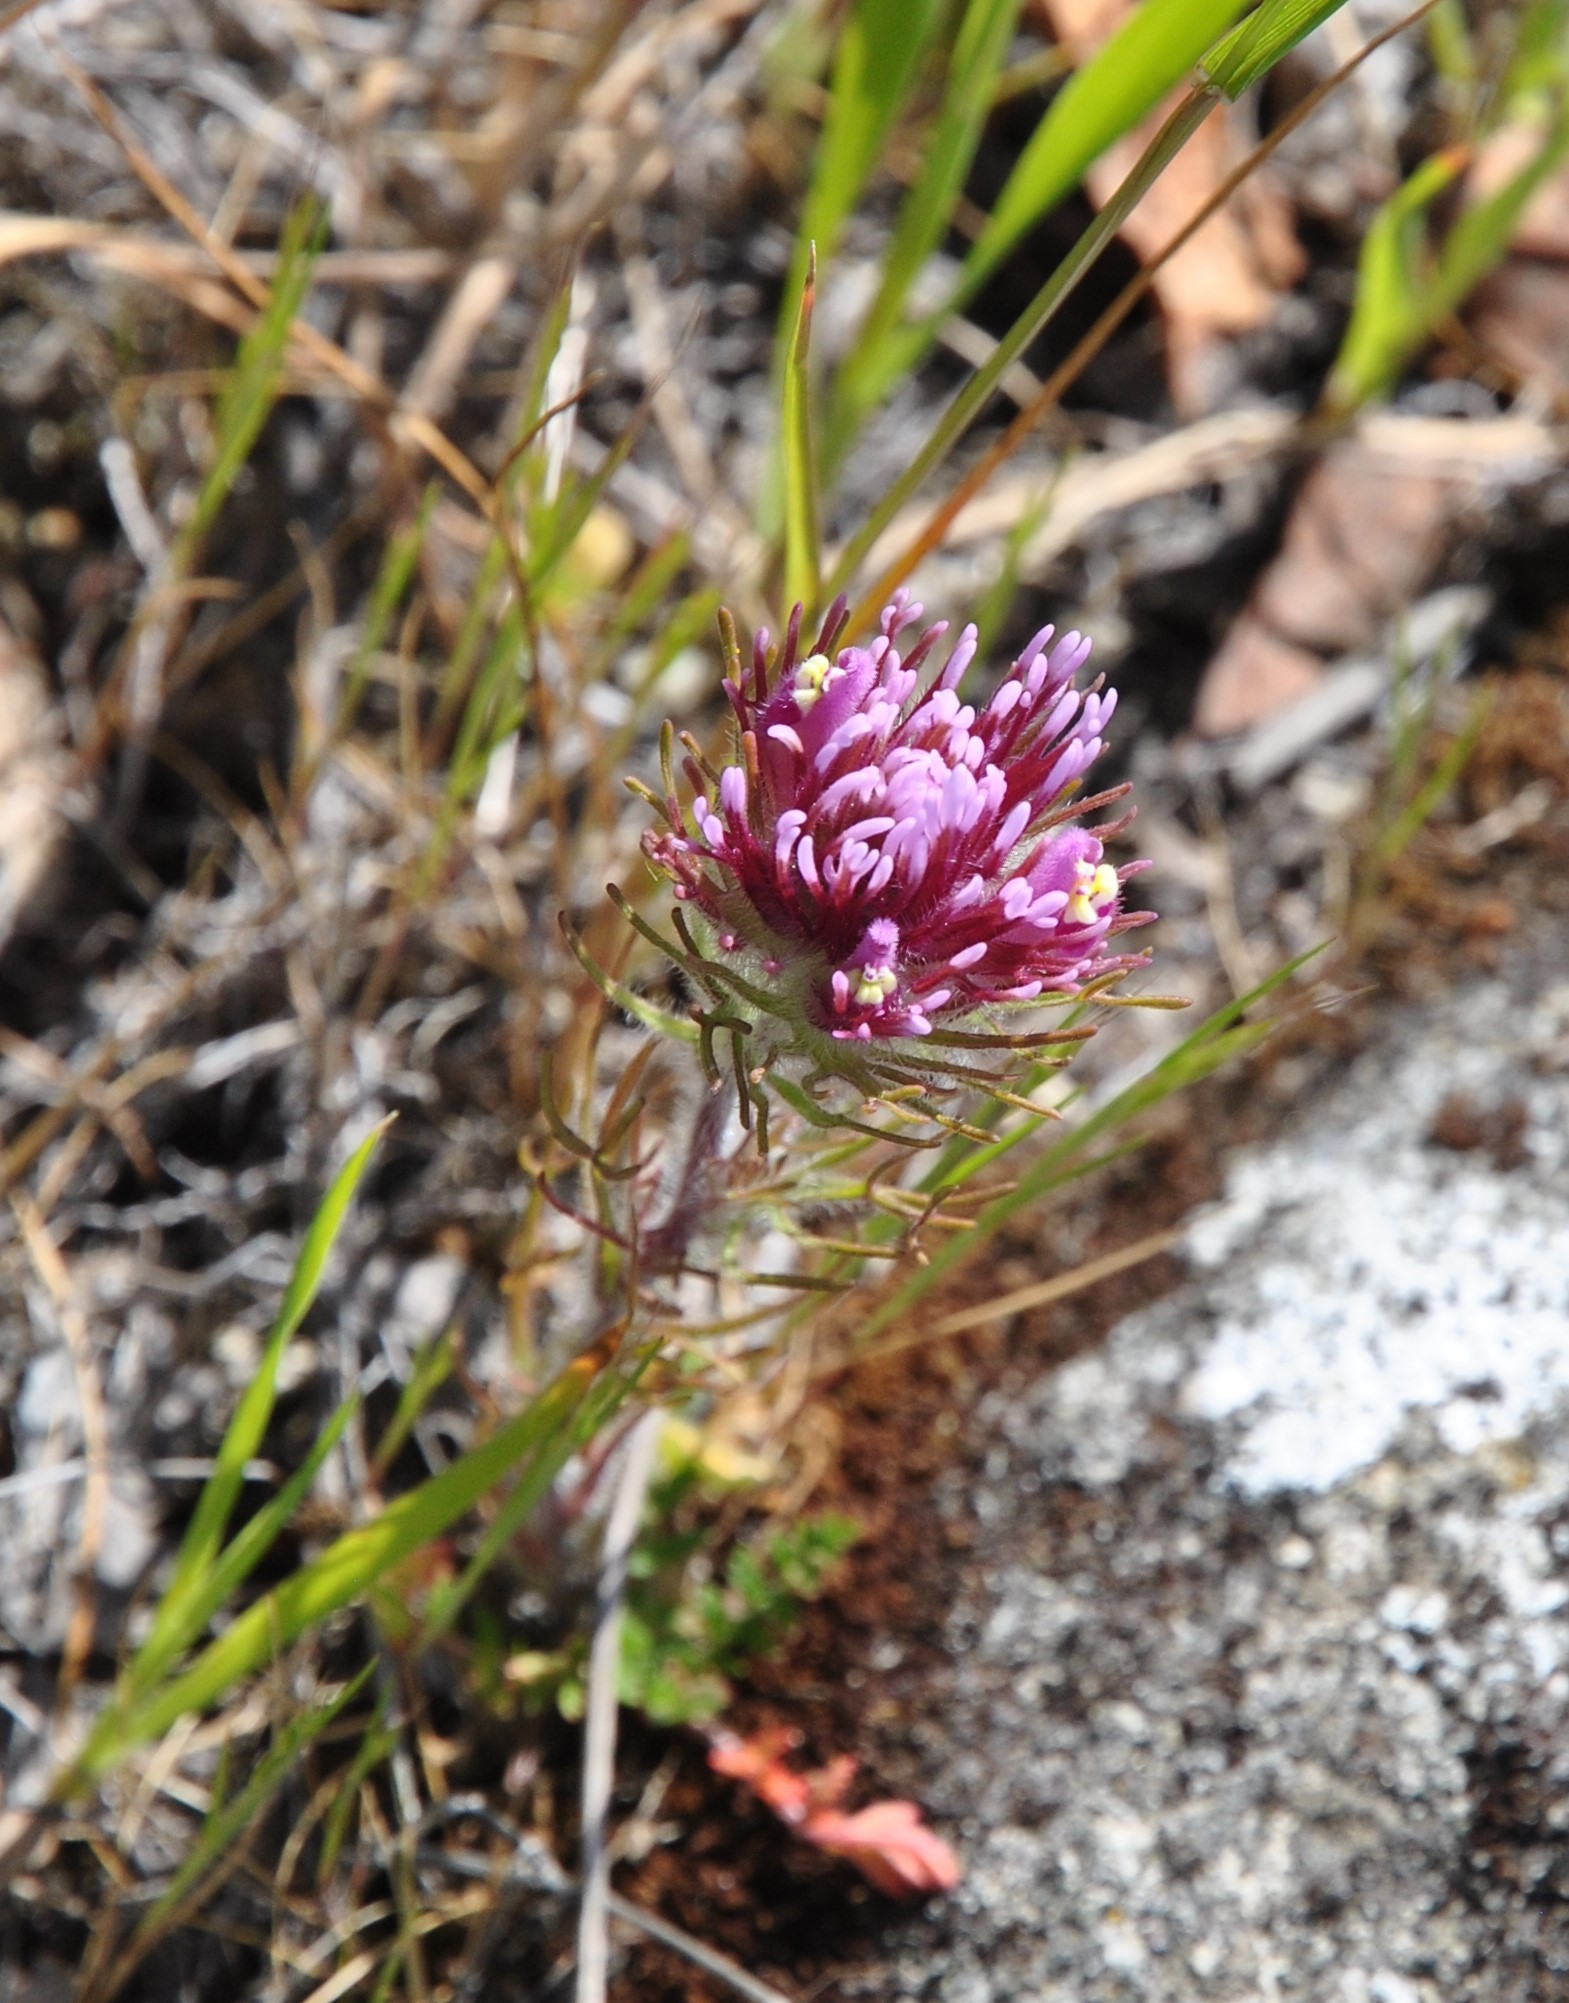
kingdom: Plantae
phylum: Tracheophyta
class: Magnoliopsida
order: Lamiales
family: Orobanchaceae
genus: Castilleja
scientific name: Castilleja exserta
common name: Purple owl-clover
